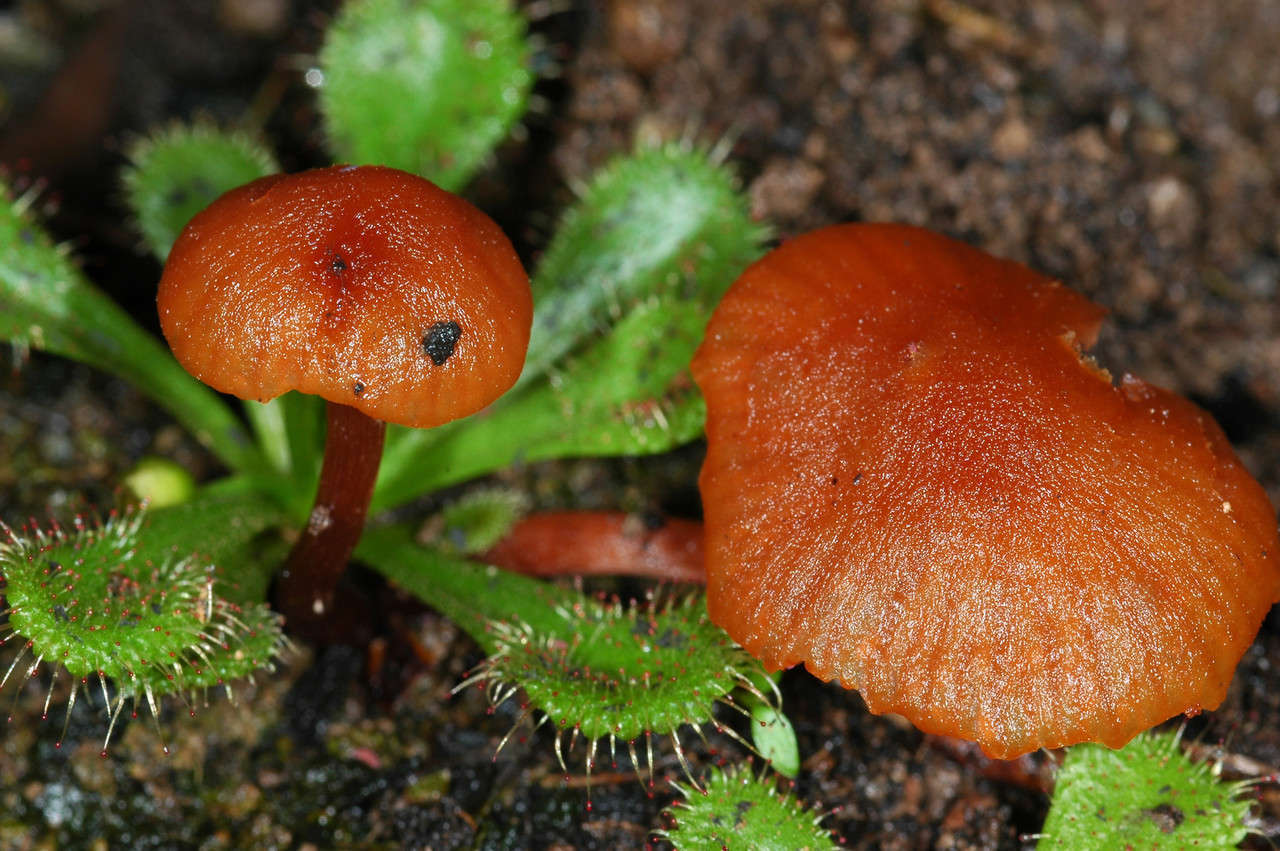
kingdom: Plantae
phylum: Tracheophyta
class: Magnoliopsida
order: Caryophyllales
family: Droseraceae
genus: Drosera
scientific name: Drosera aberrans
